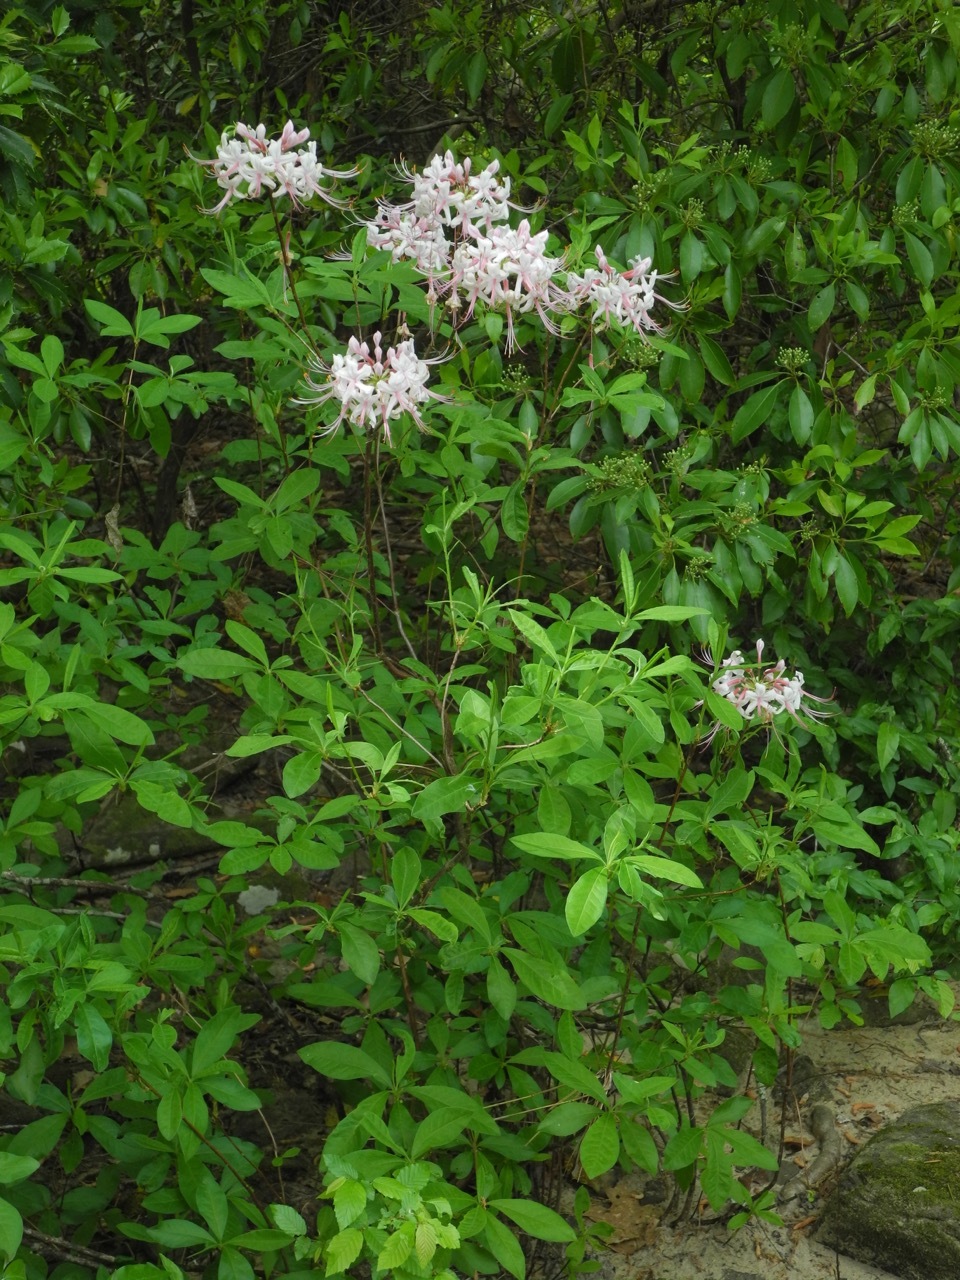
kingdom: Plantae
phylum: Tracheophyta
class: Magnoliopsida
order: Ericales
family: Ericaceae
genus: Rhododendron
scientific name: Rhododendron periclymenoides
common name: Election-pink
